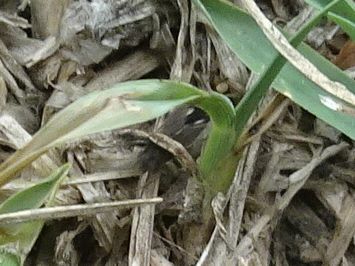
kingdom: Animalia
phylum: Arthropoda
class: Insecta
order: Hemiptera
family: Lygaeidae
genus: Lygaeosoma
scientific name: Lygaeosoma sardeum
